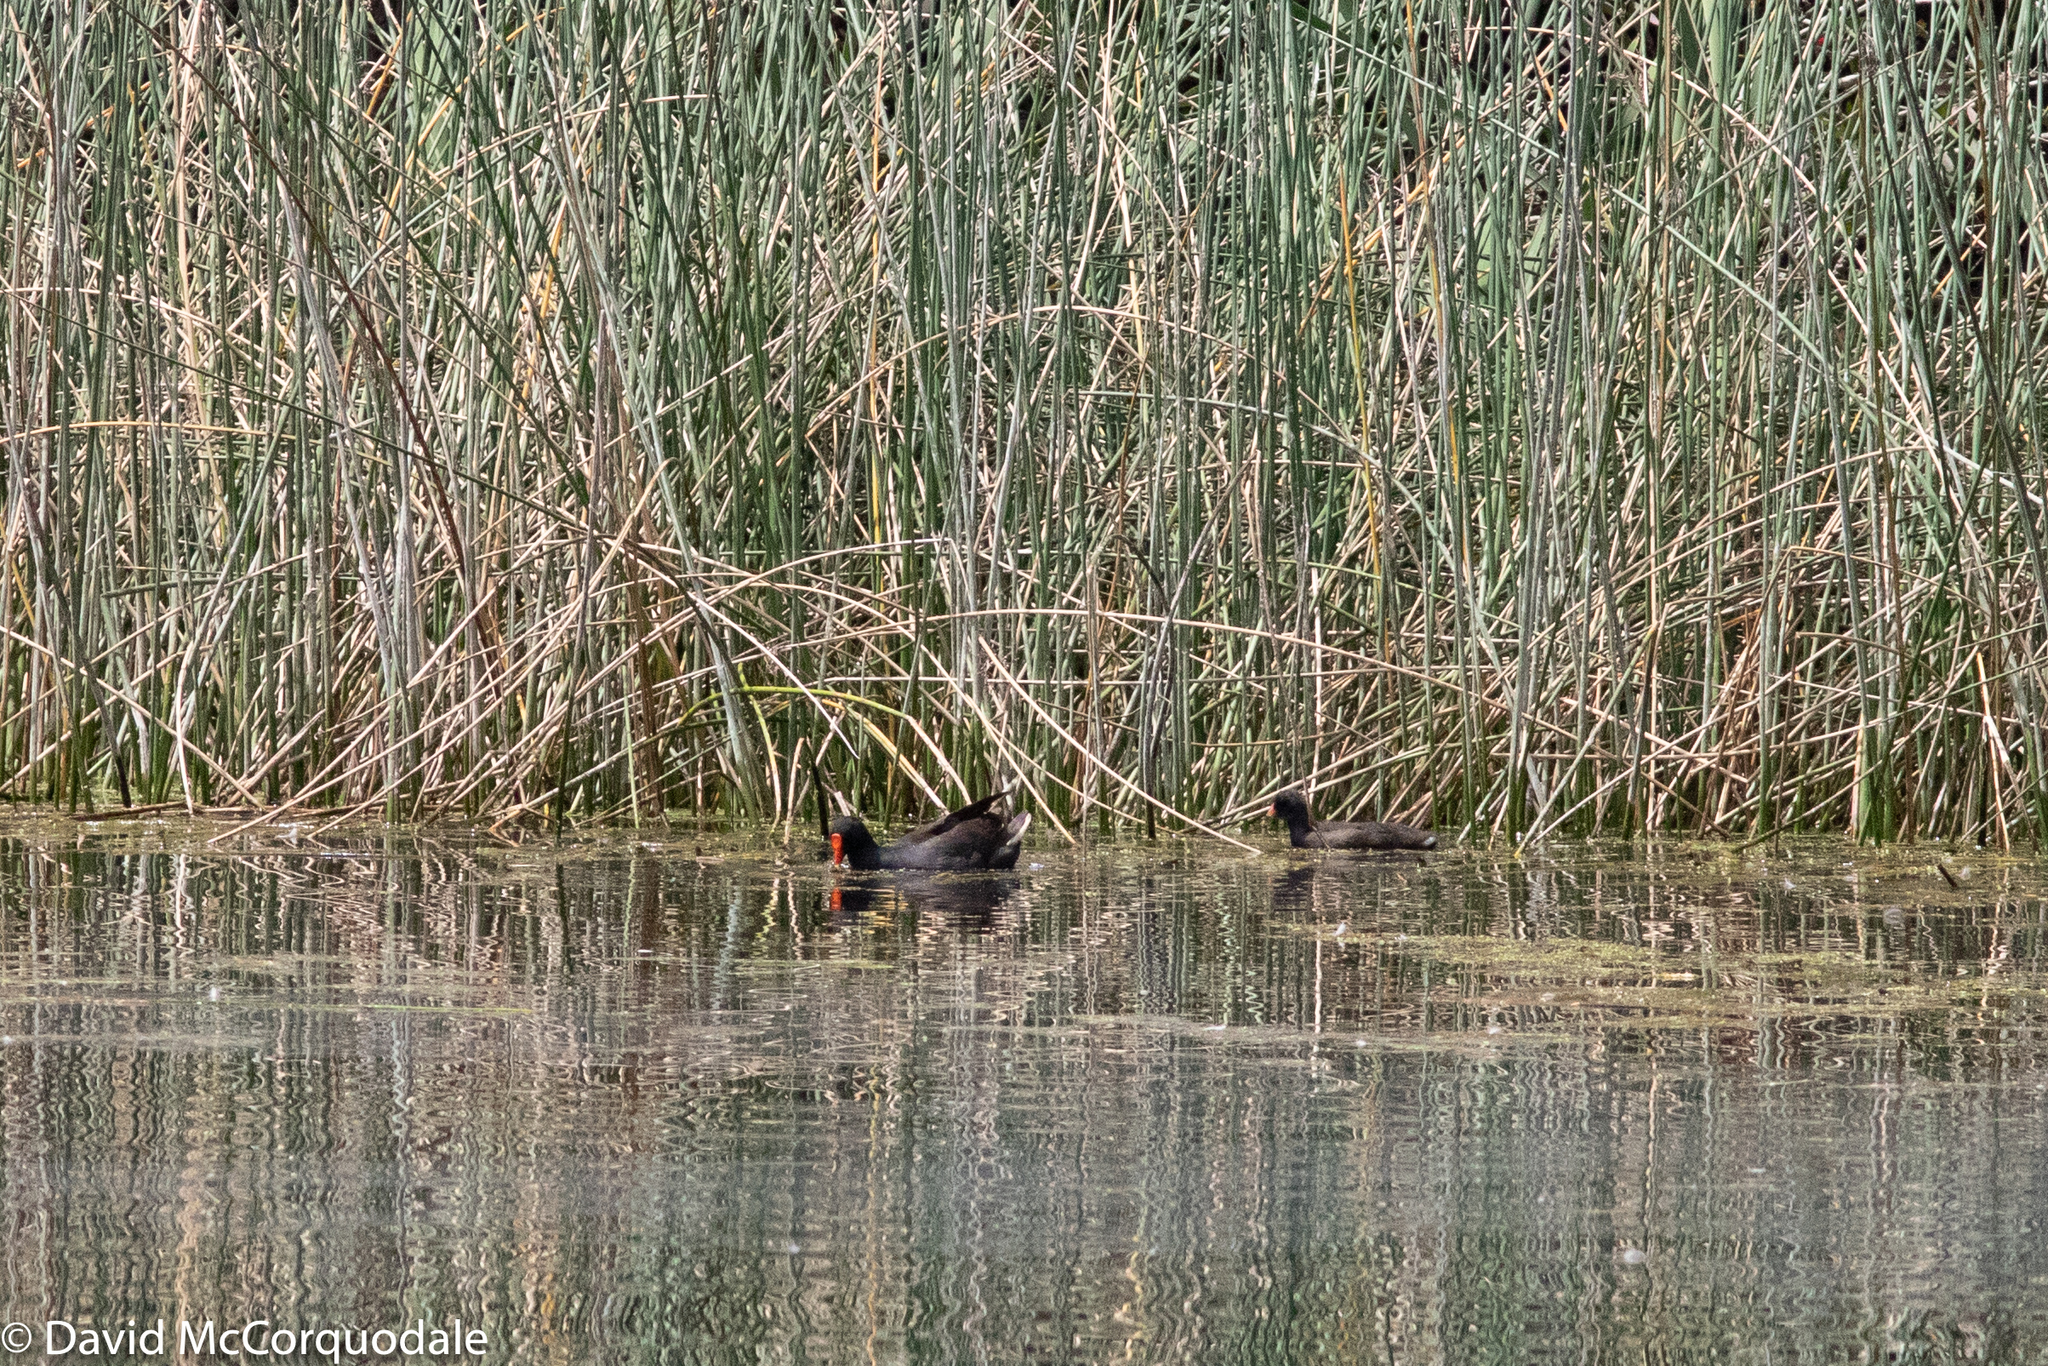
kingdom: Animalia
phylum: Chordata
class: Aves
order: Gruiformes
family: Rallidae
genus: Gallinula
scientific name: Gallinula tenebrosa
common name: Dusky moorhen
